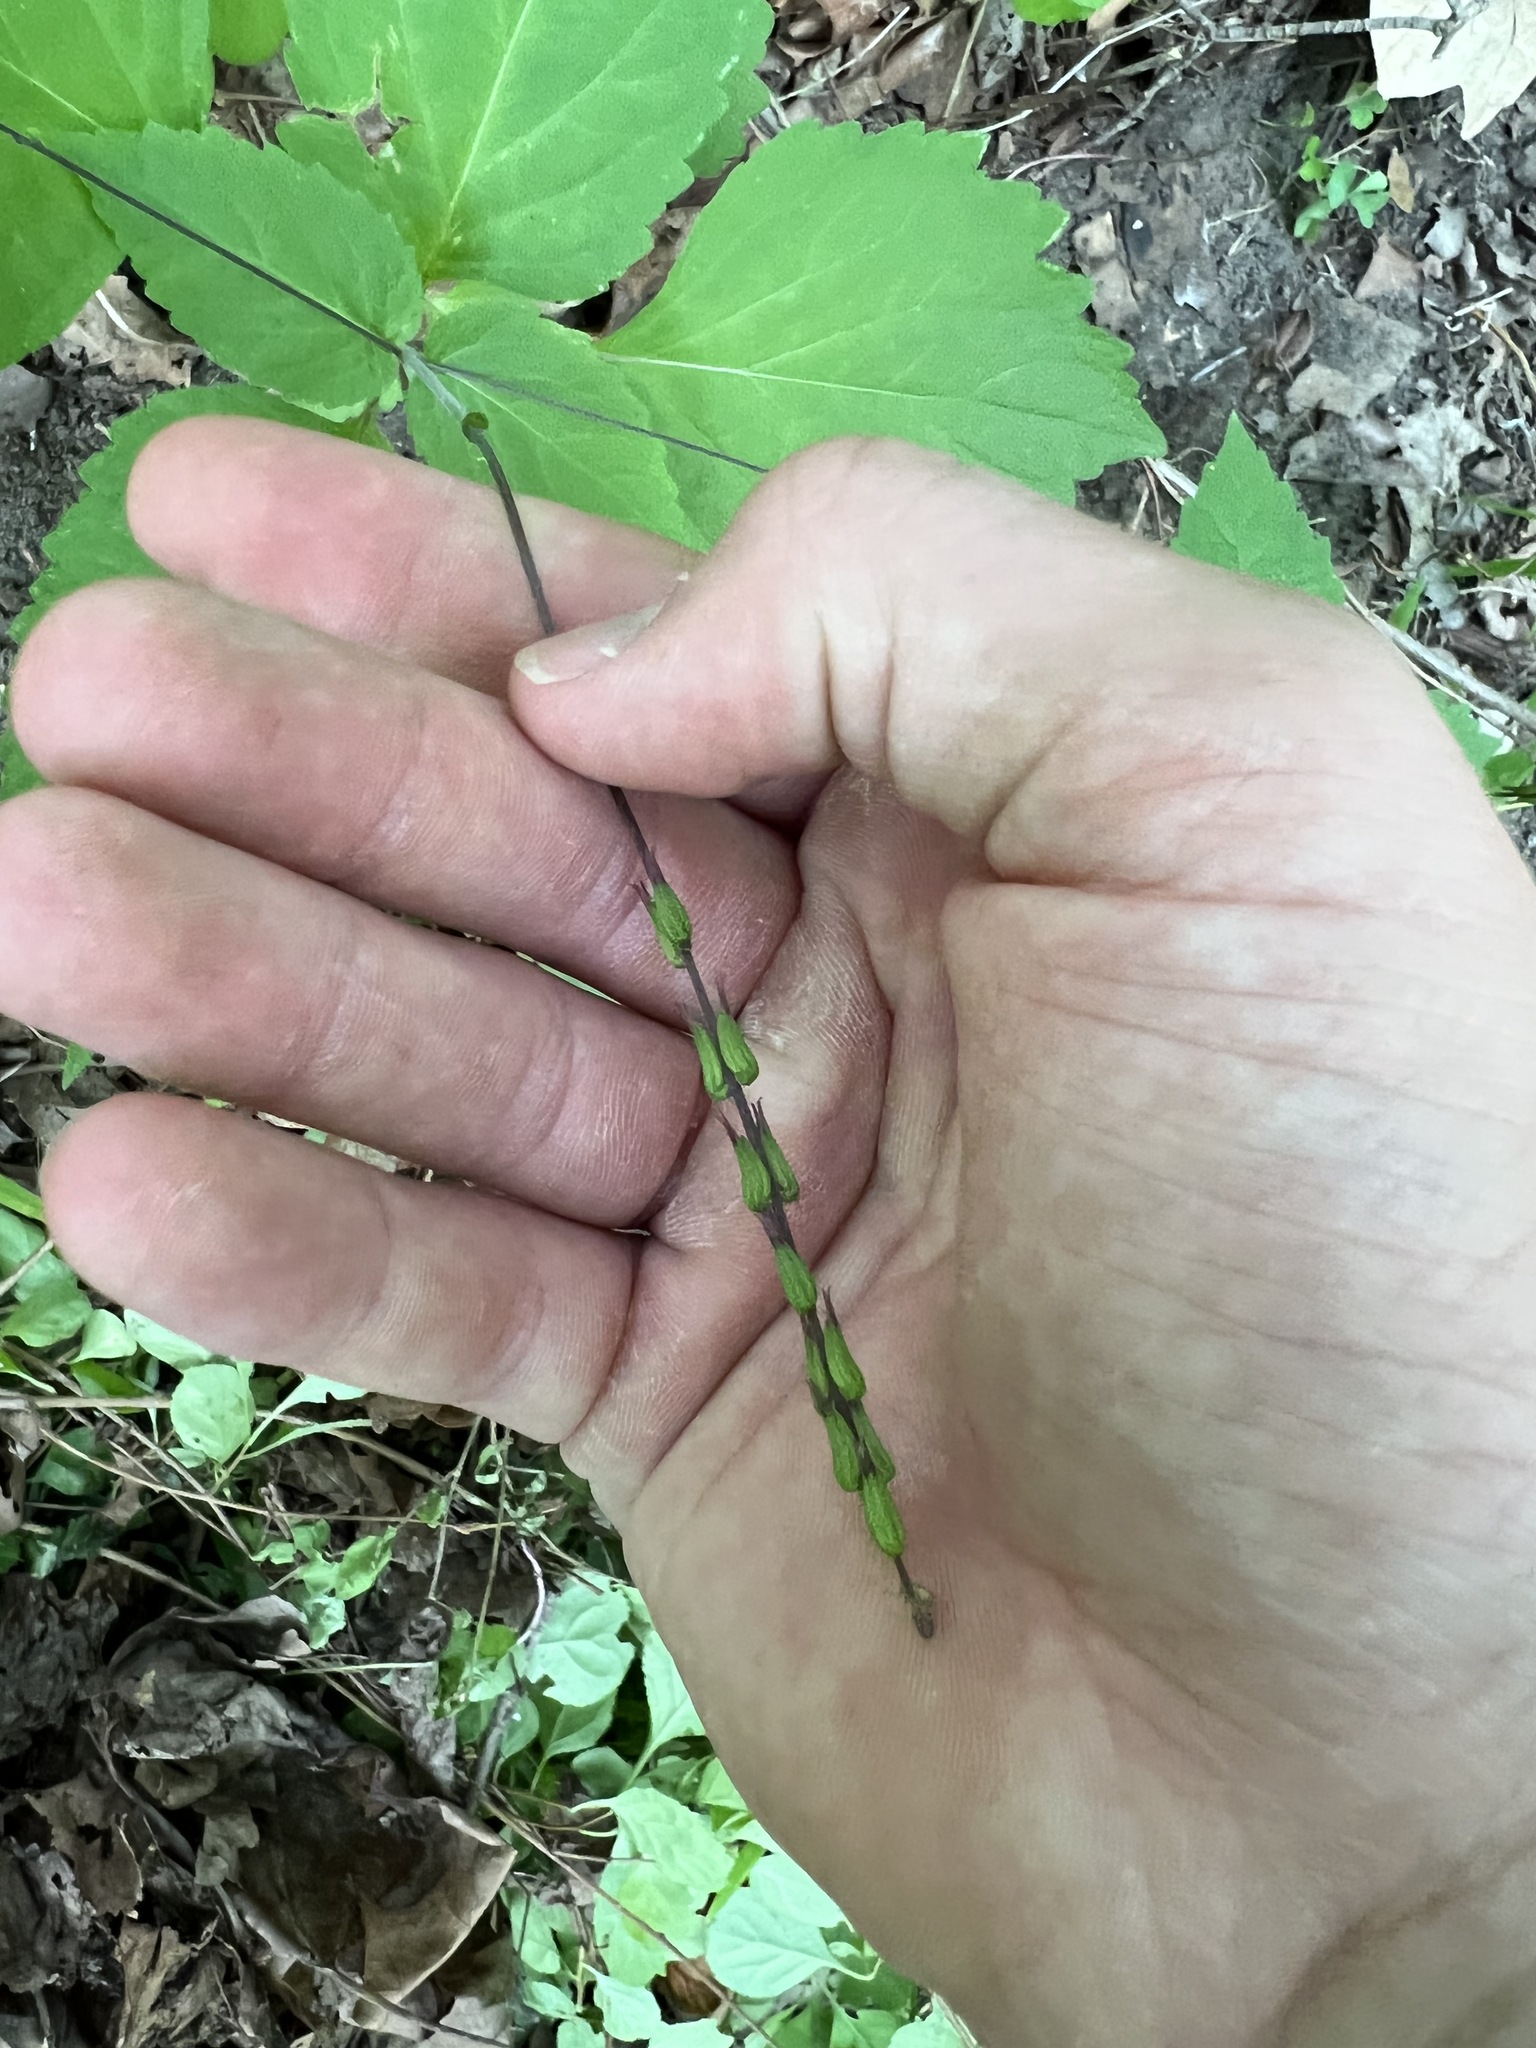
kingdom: Plantae
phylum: Tracheophyta
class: Magnoliopsida
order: Lamiales
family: Phrymaceae
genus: Phryma
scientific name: Phryma leptostachya
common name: American lopseed
